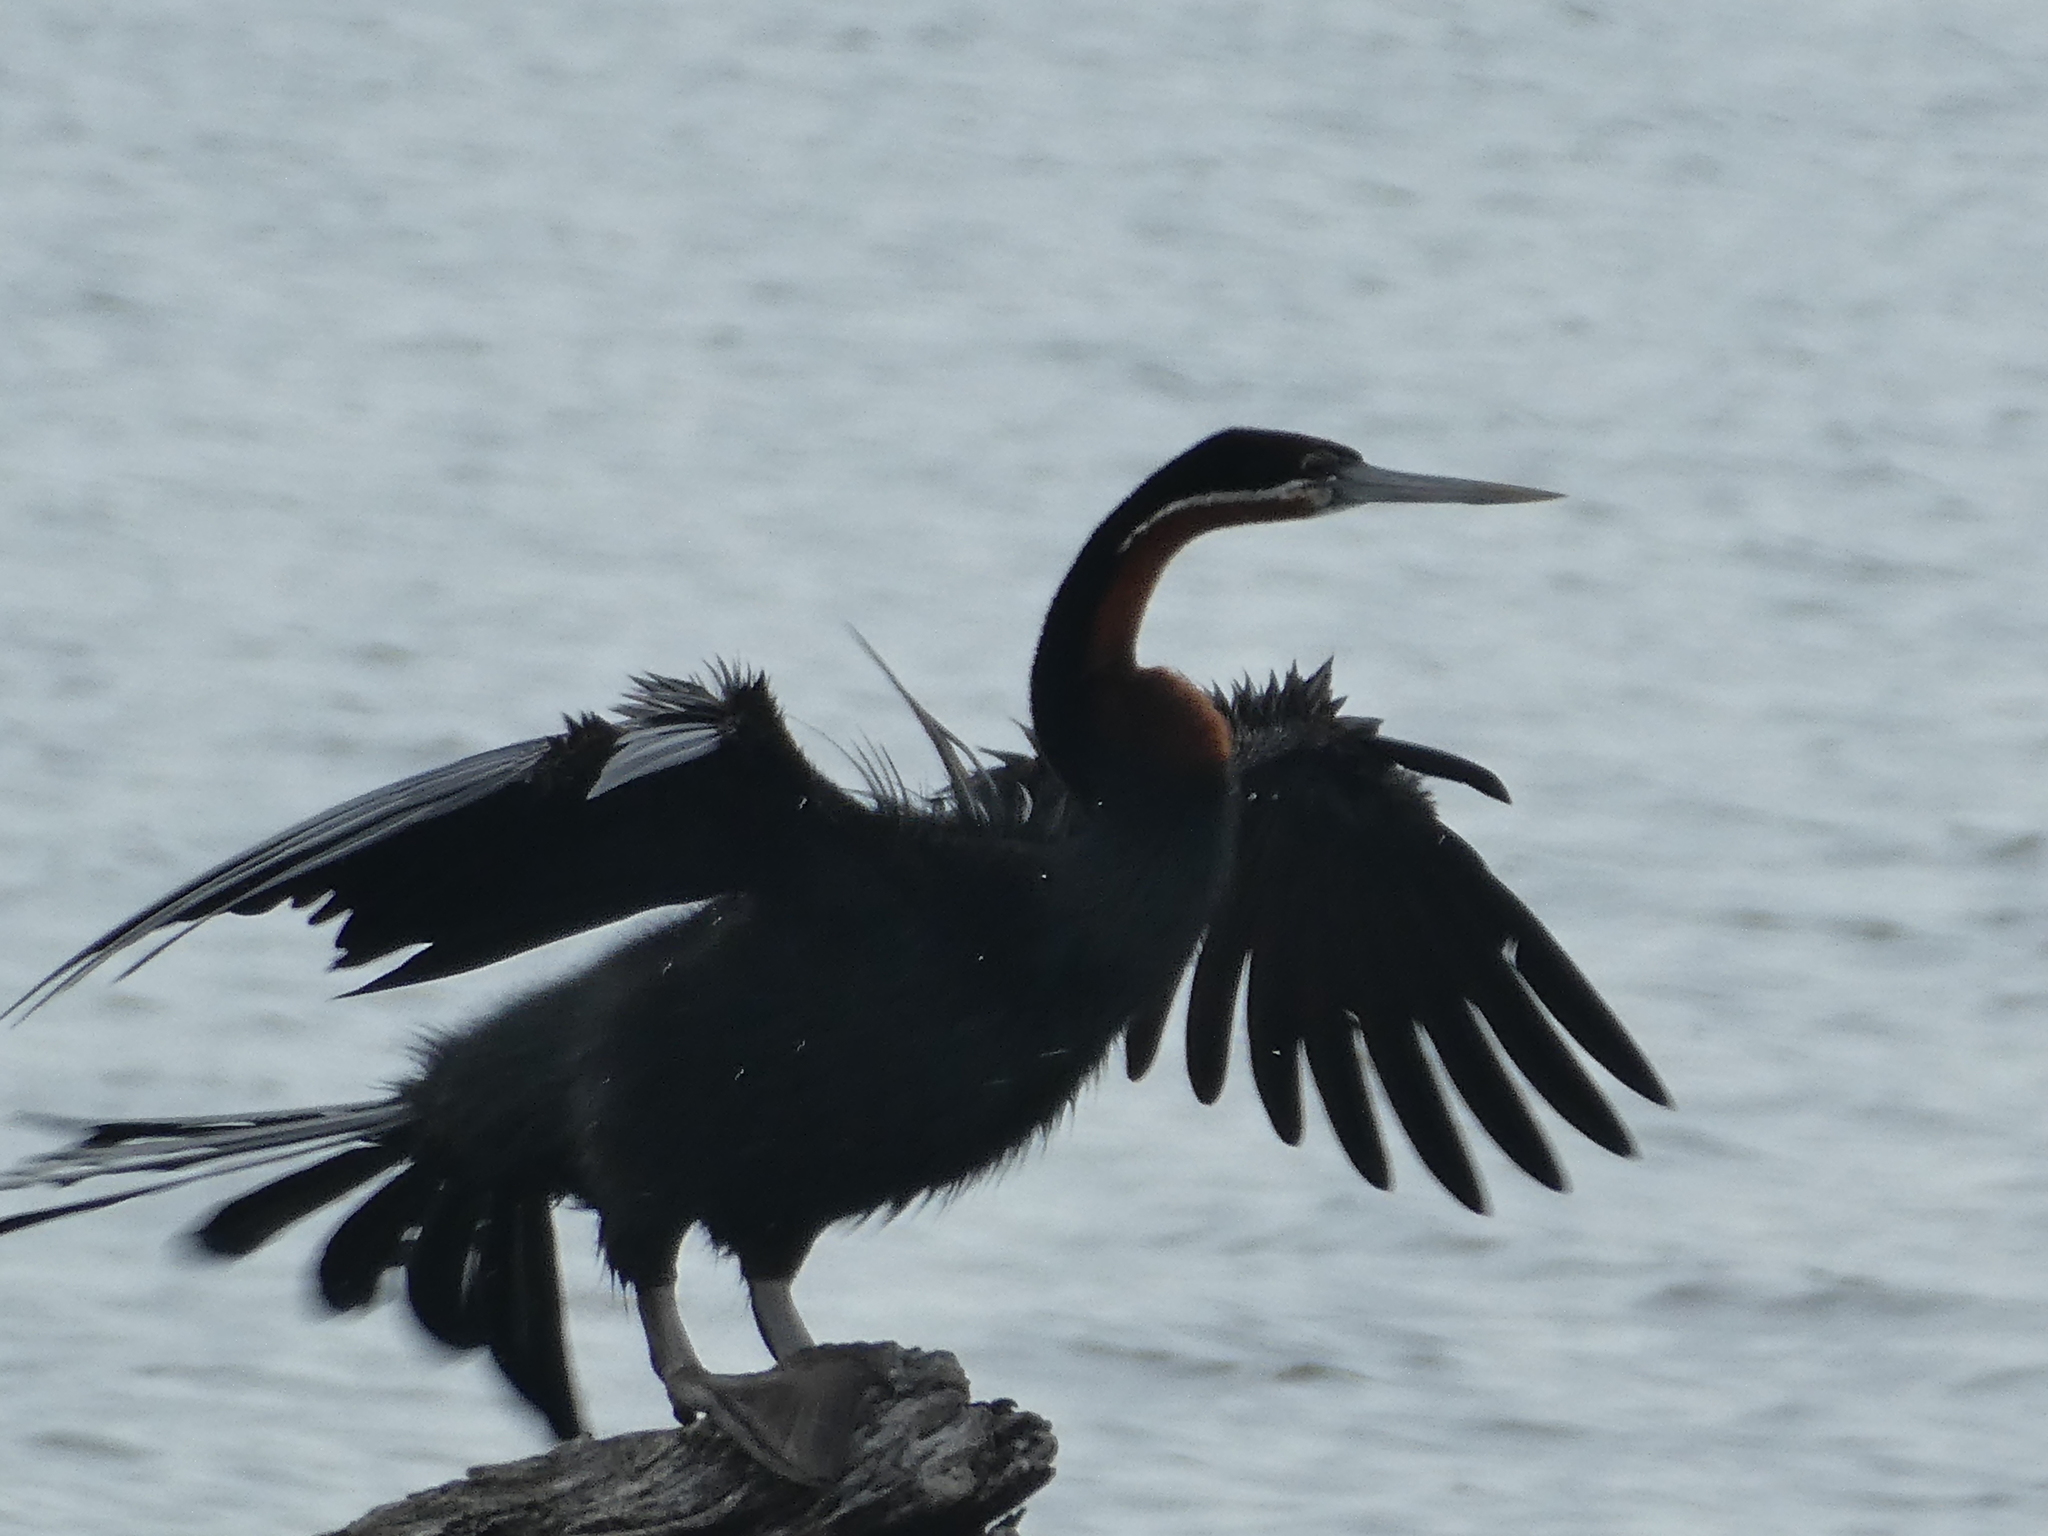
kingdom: Animalia
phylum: Chordata
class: Aves
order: Suliformes
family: Anhingidae
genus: Anhinga
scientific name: Anhinga rufa
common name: African darter
